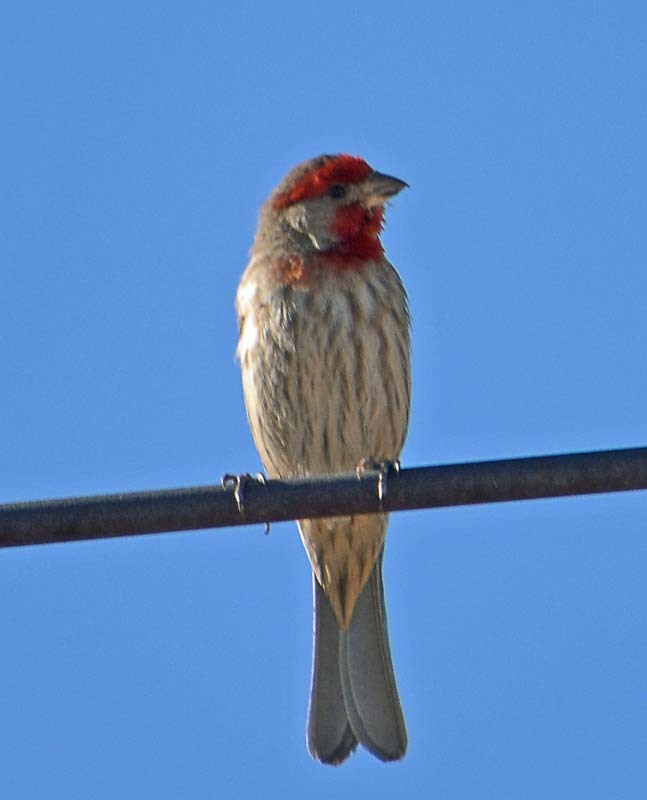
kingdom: Animalia
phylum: Chordata
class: Aves
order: Passeriformes
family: Fringillidae
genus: Haemorhous
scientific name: Haemorhous mexicanus
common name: House finch
